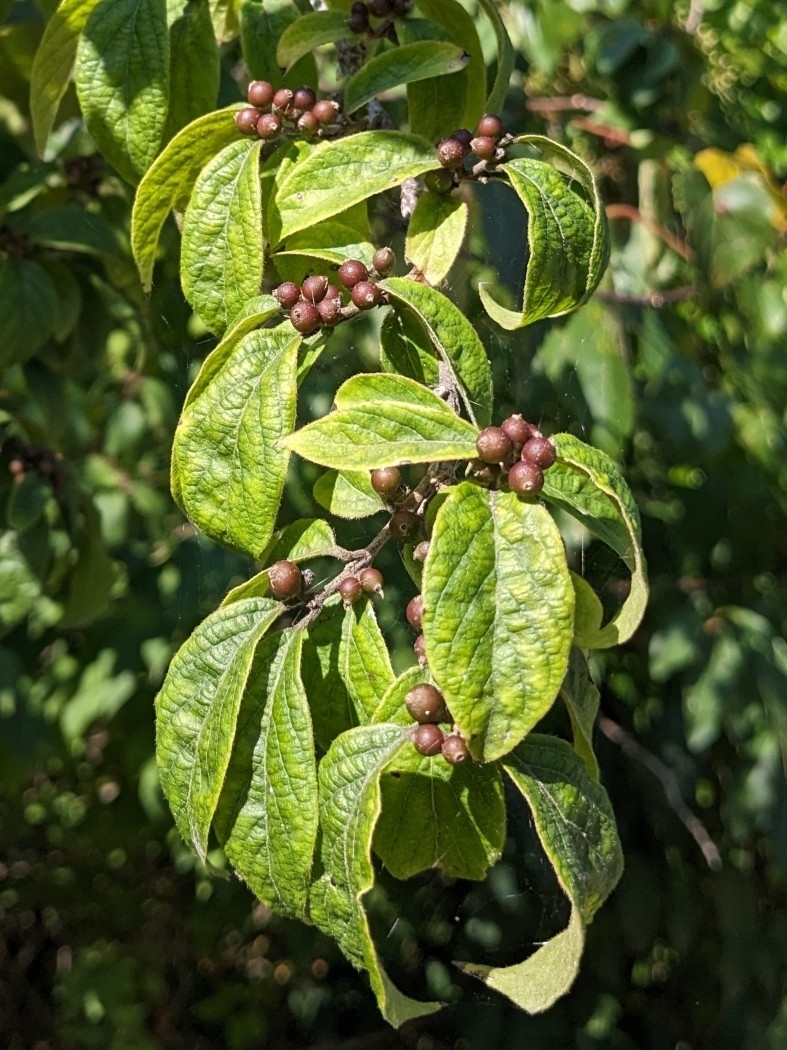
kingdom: Plantae
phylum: Tracheophyta
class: Magnoliopsida
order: Dipsacales
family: Caprifoliaceae
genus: Lonicera
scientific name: Lonicera maackii
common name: Amur honeysuckle
